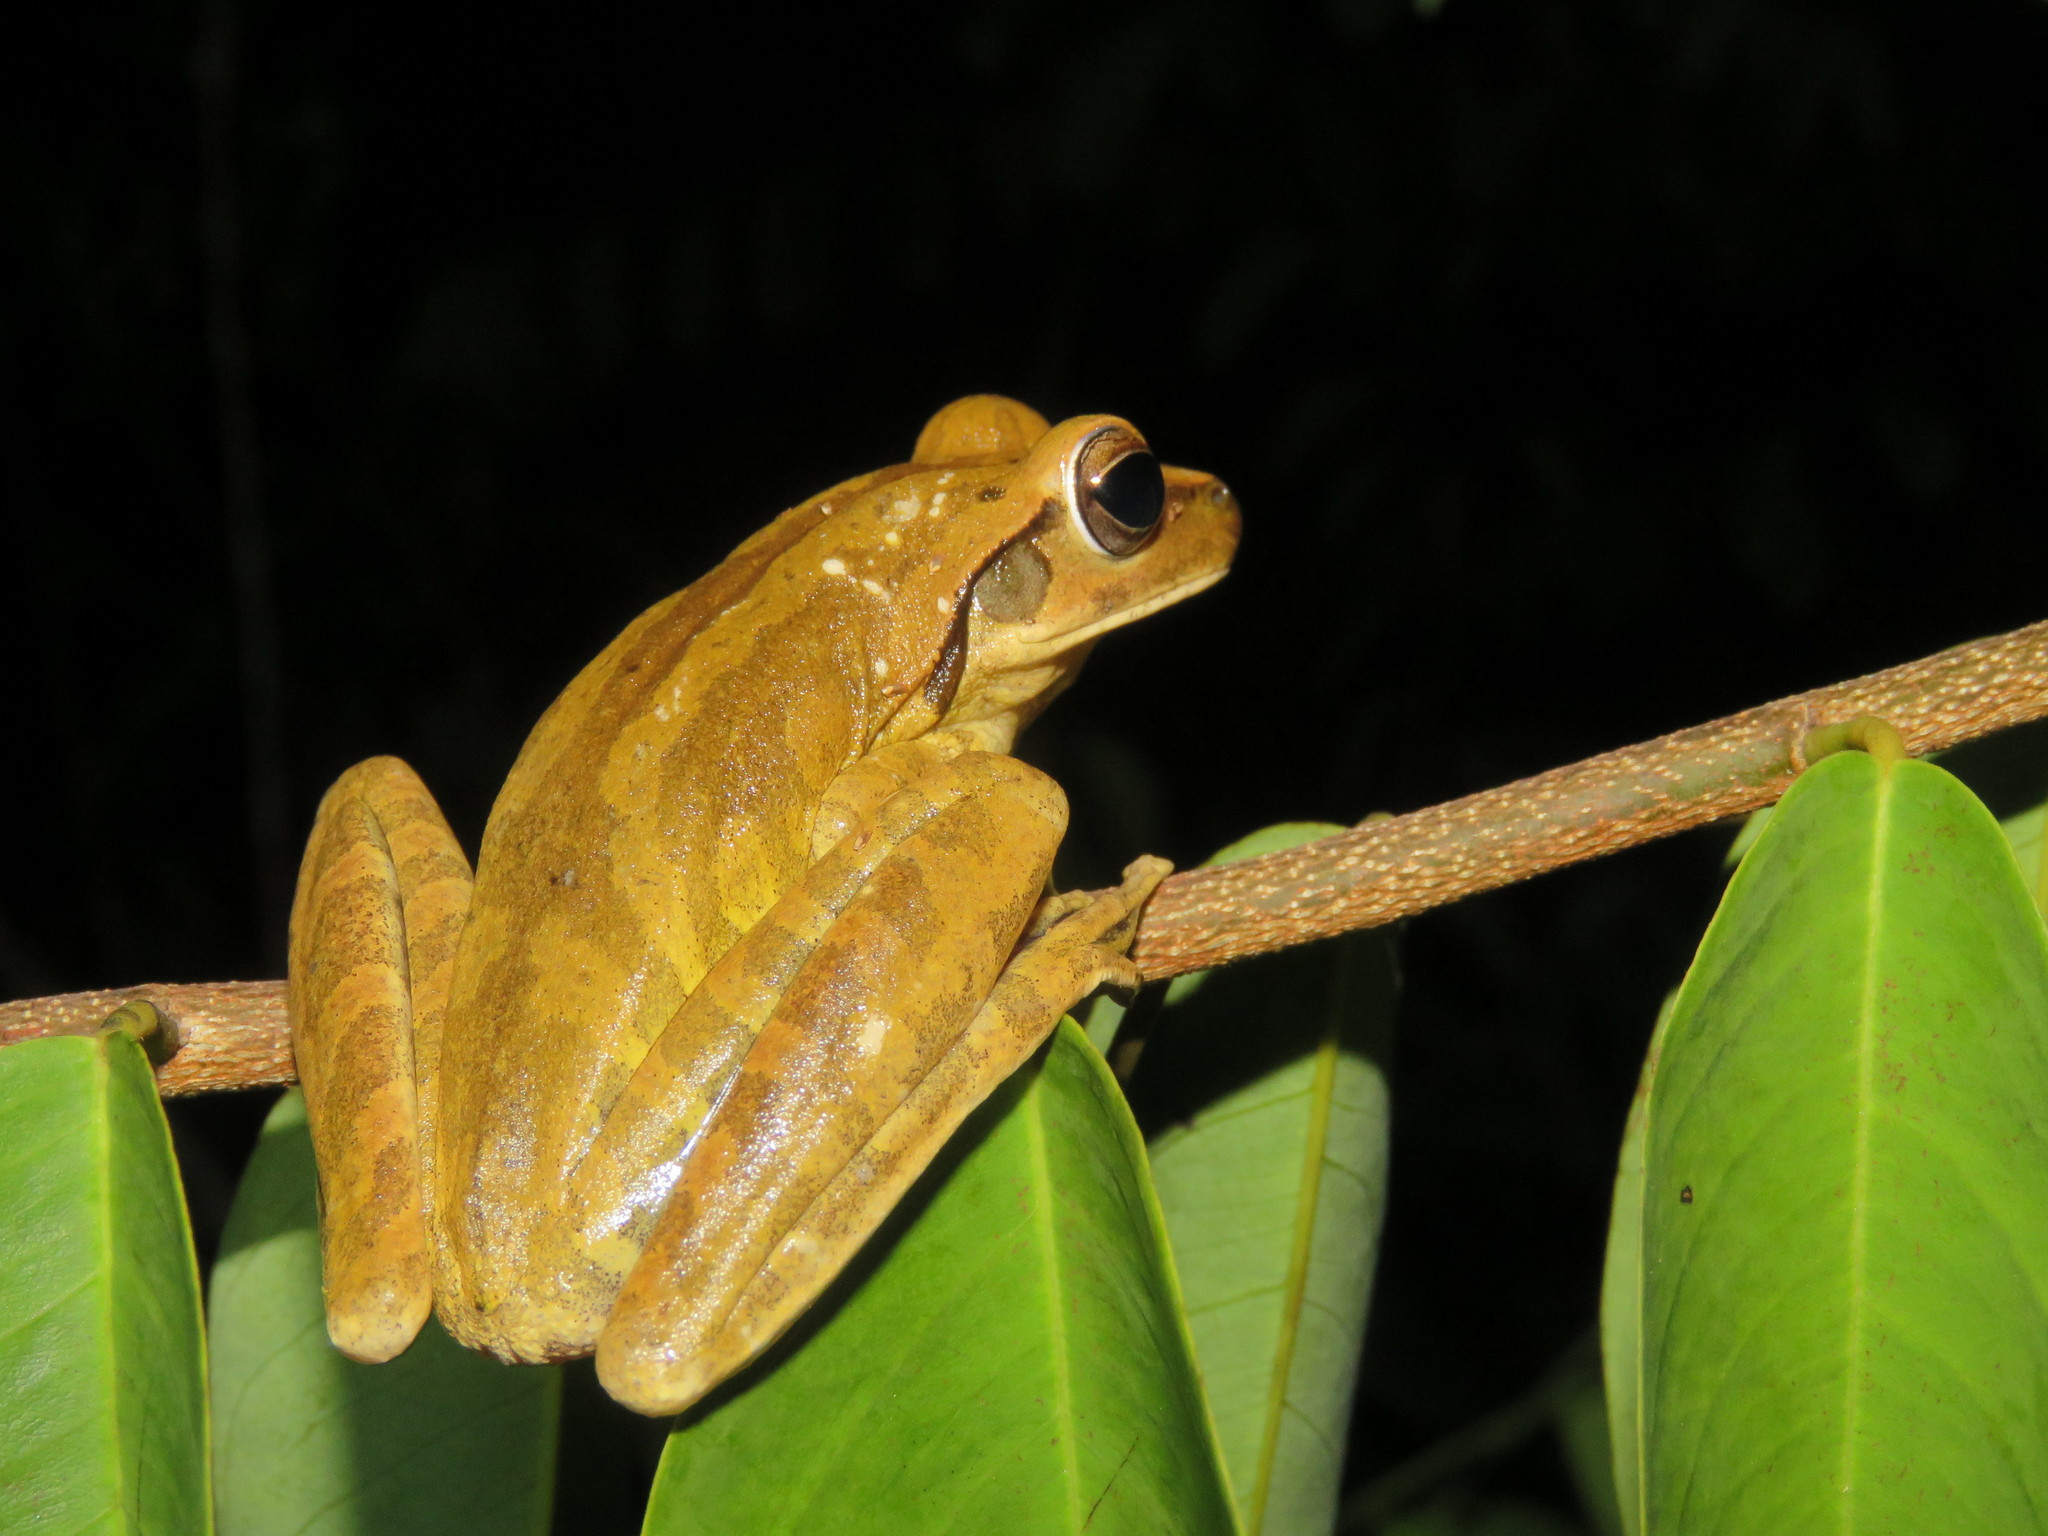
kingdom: Animalia
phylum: Chordata
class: Amphibia
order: Anura
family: Hylidae
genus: Boana
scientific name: Boana raniceps
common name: Chaco treefrog
